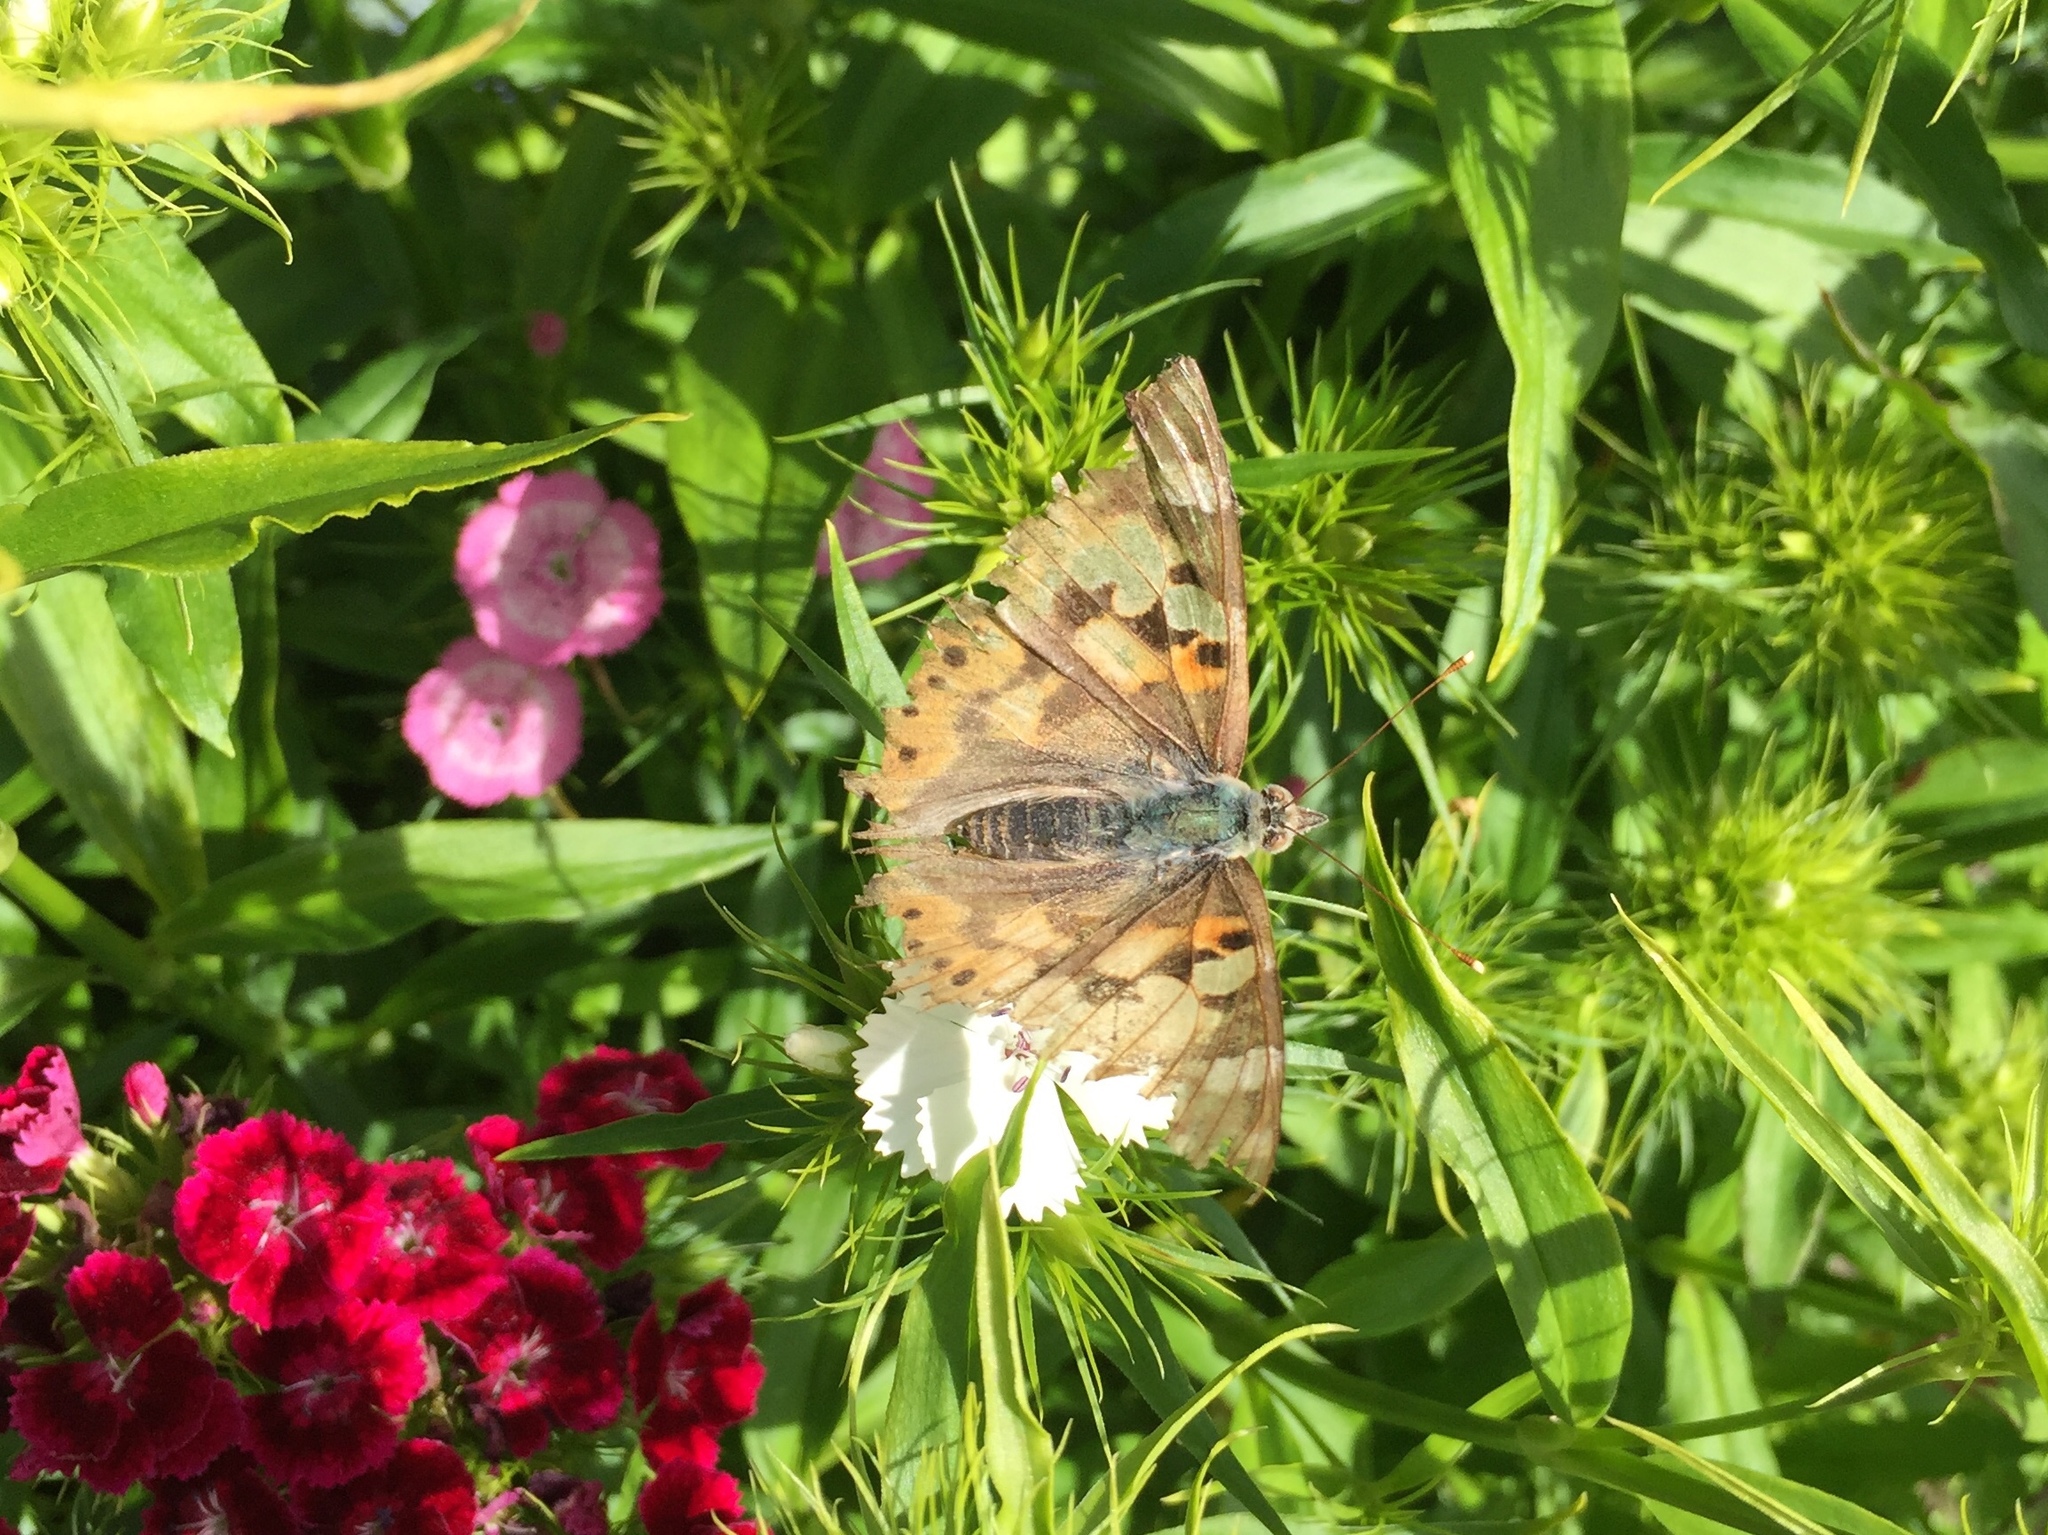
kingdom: Animalia
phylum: Arthropoda
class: Insecta
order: Lepidoptera
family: Nymphalidae
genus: Vanessa
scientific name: Vanessa cardui
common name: Painted lady
